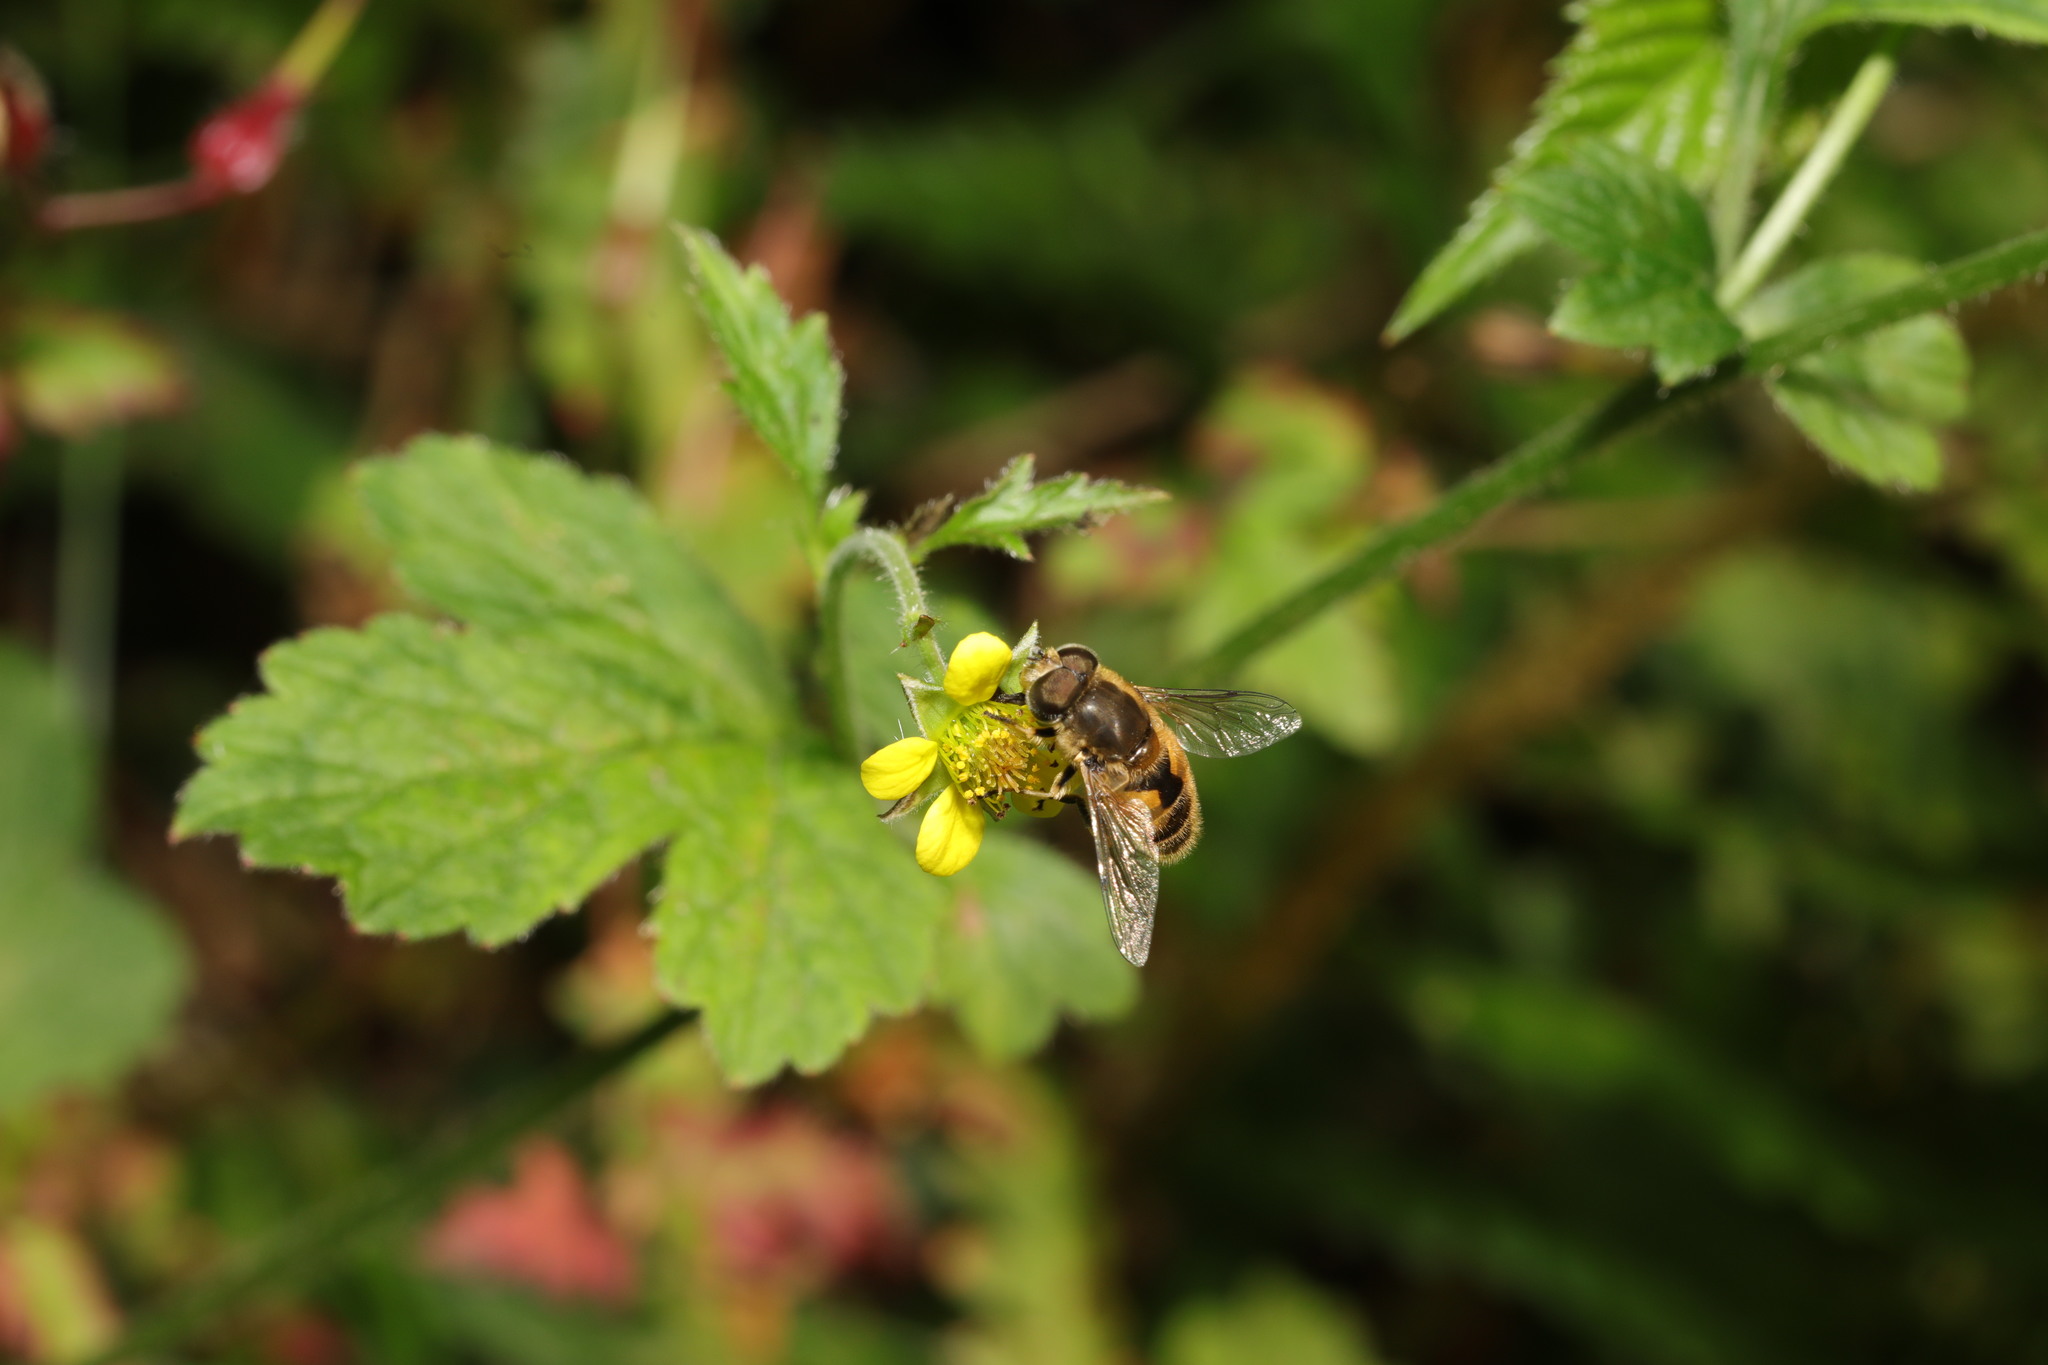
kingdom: Animalia
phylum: Arthropoda
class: Insecta
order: Diptera
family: Syrphidae
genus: Eristalis
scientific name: Eristalis arbustorum
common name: Hover fly
